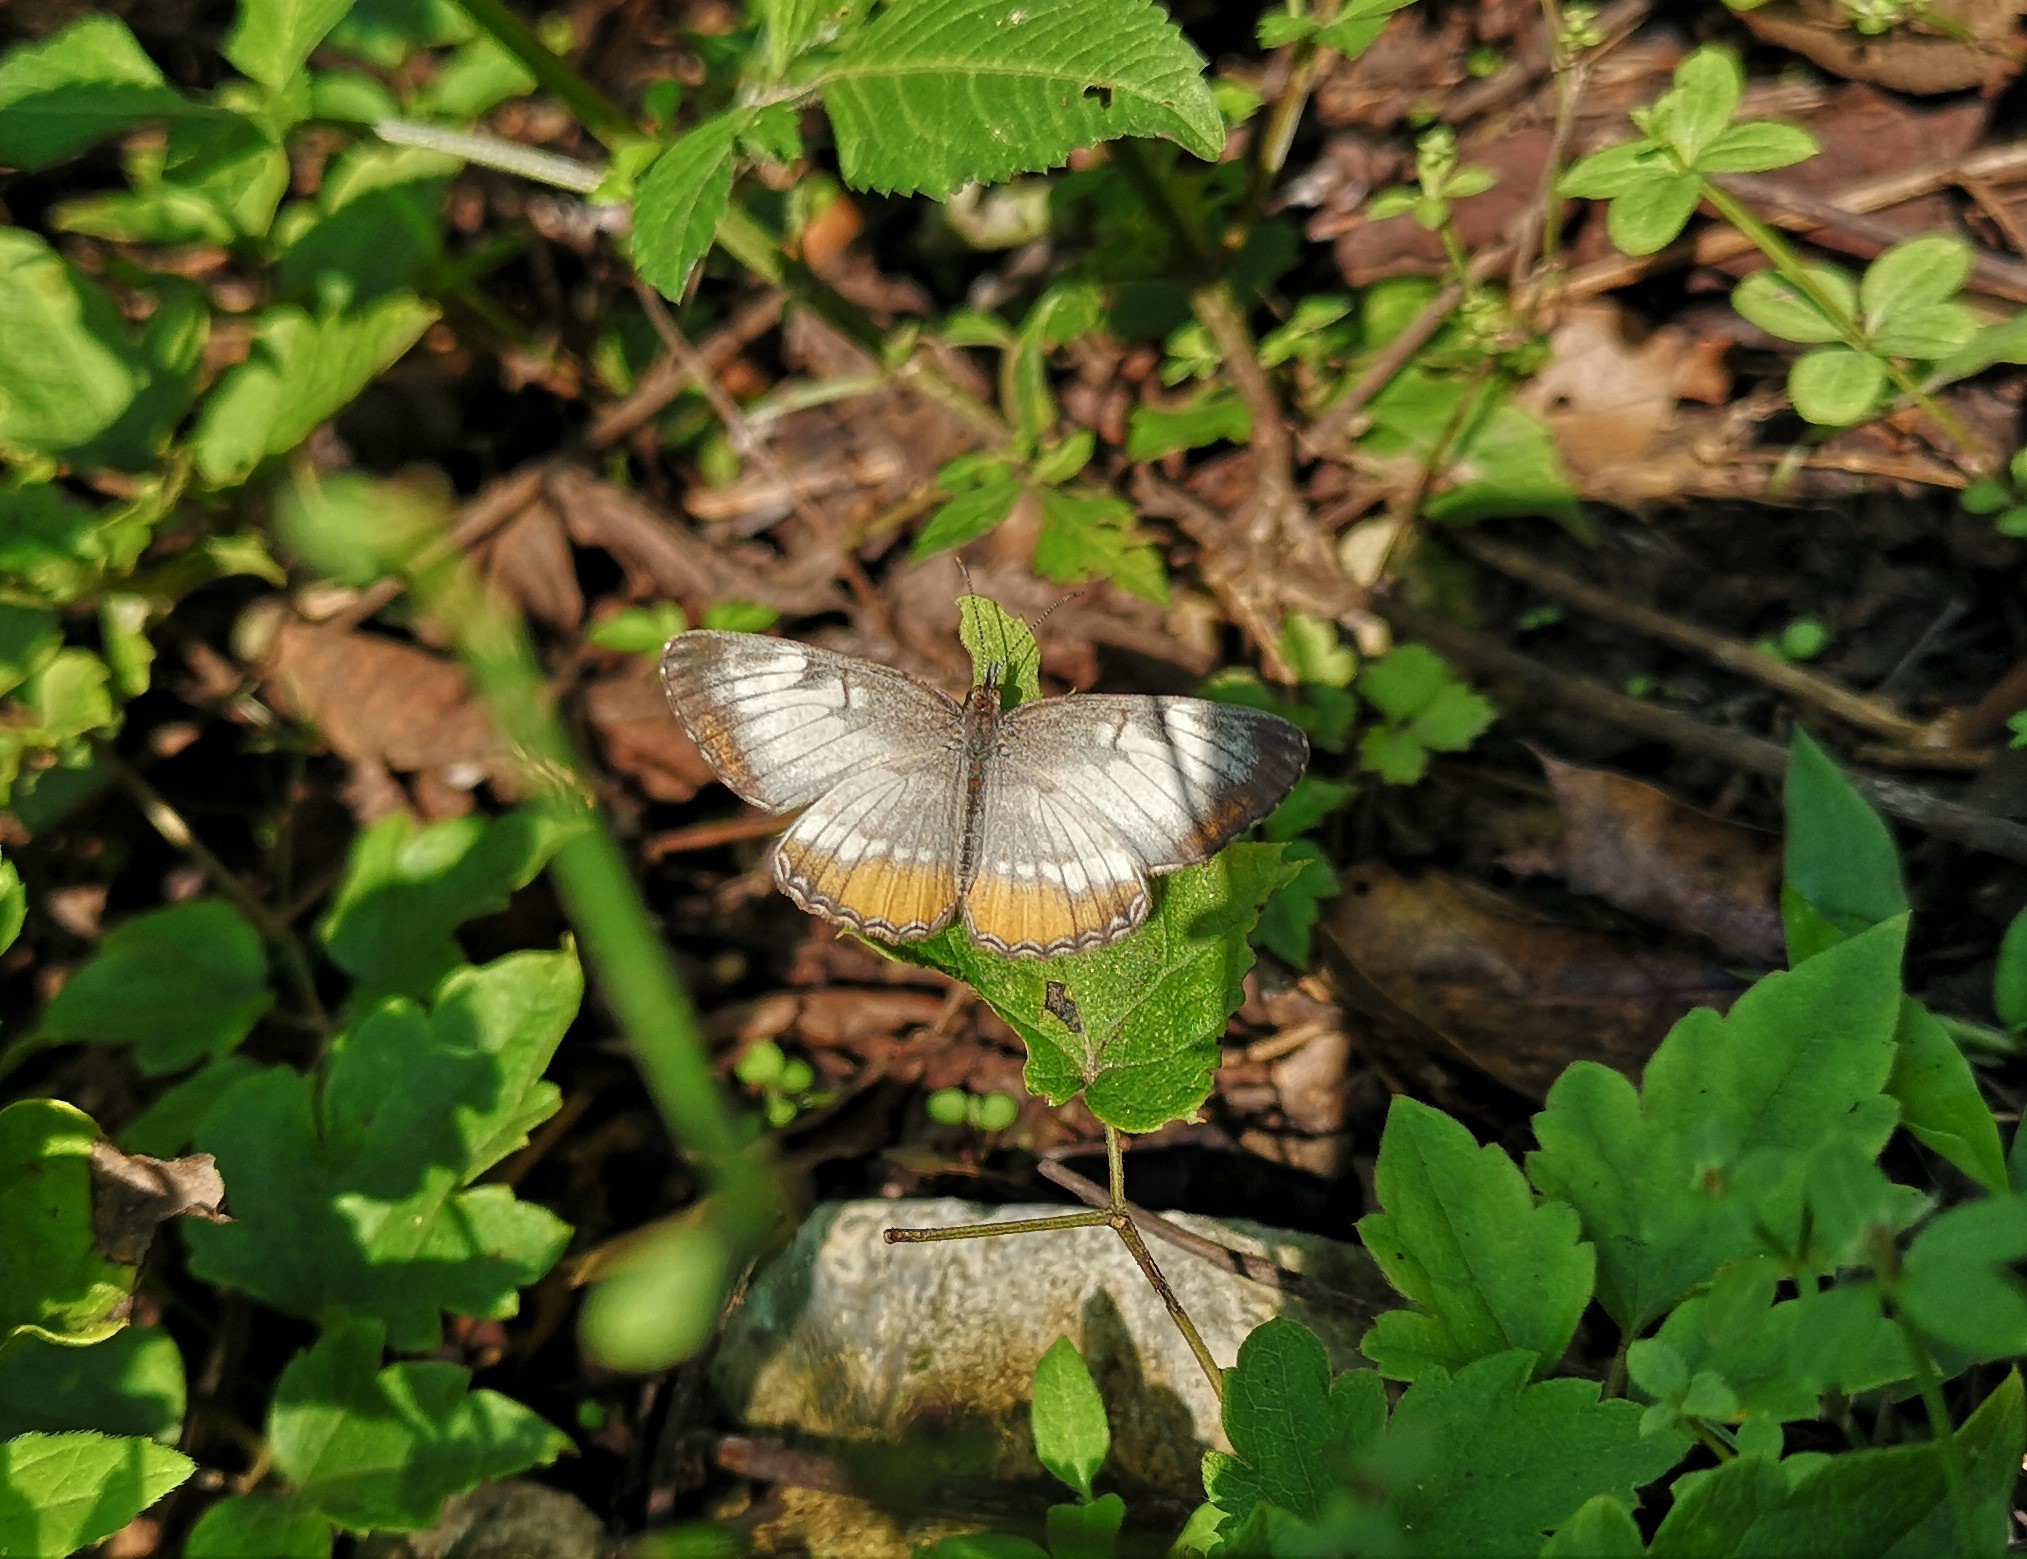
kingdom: Animalia
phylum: Arthropoda
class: Insecta
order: Lepidoptera
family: Nymphalidae
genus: Mestra
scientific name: Mestra amymone
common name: Common mestra
